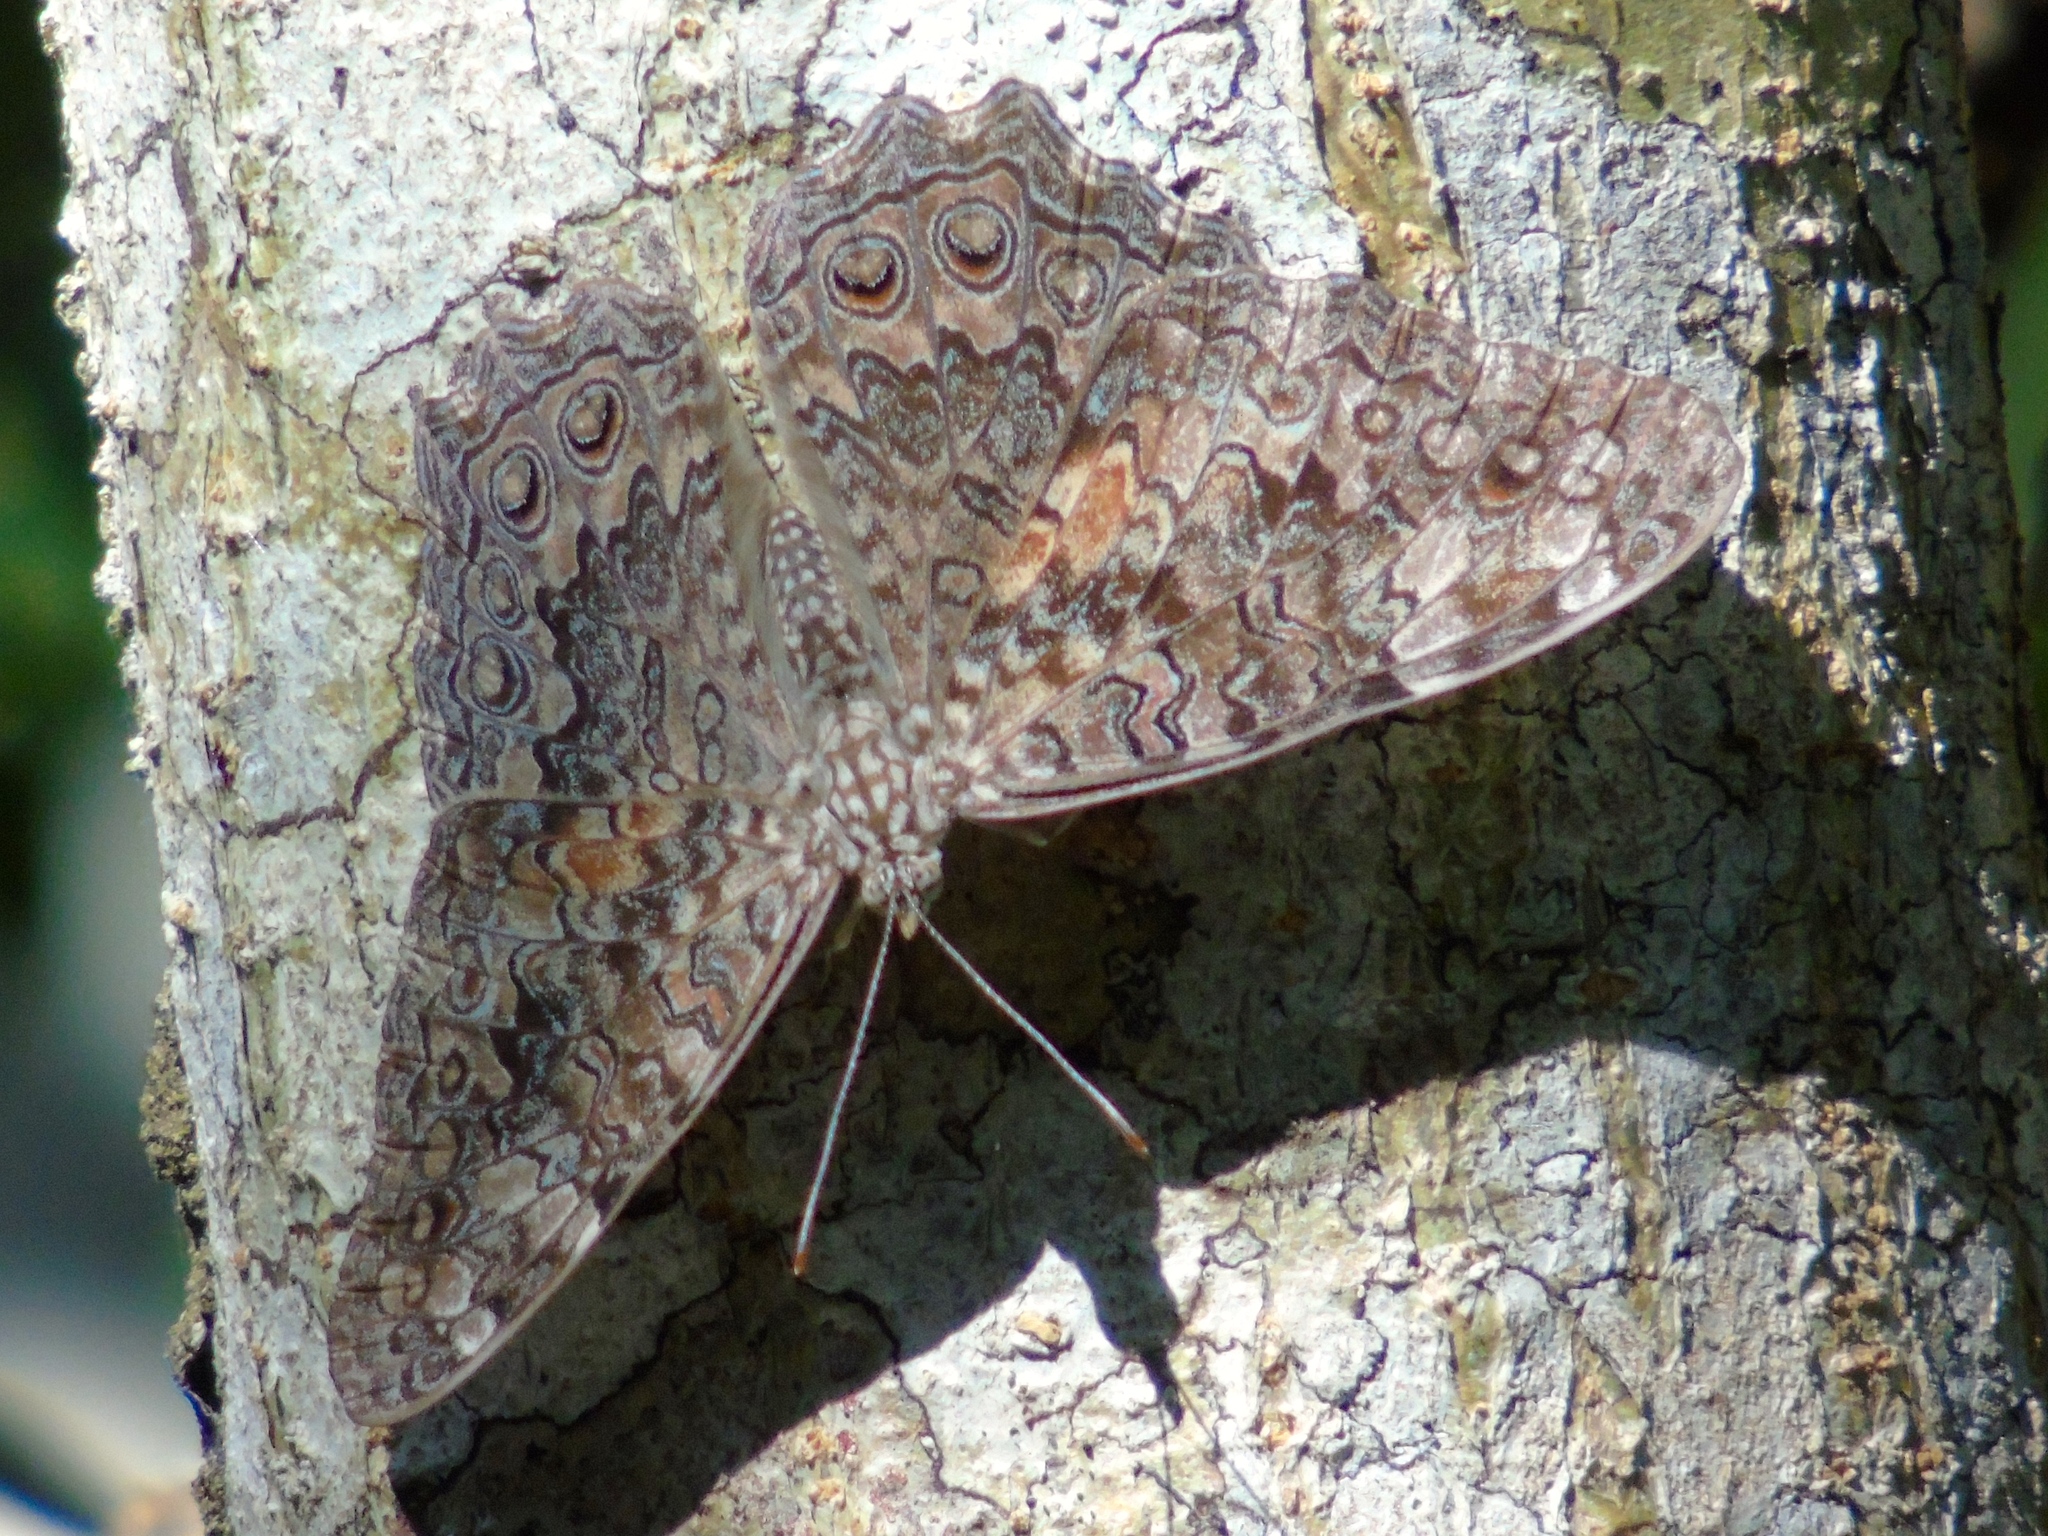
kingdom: Animalia
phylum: Arthropoda
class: Insecta
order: Lepidoptera
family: Nymphalidae
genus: Hamadryas
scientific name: Hamadryas februa
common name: Gray cracker
